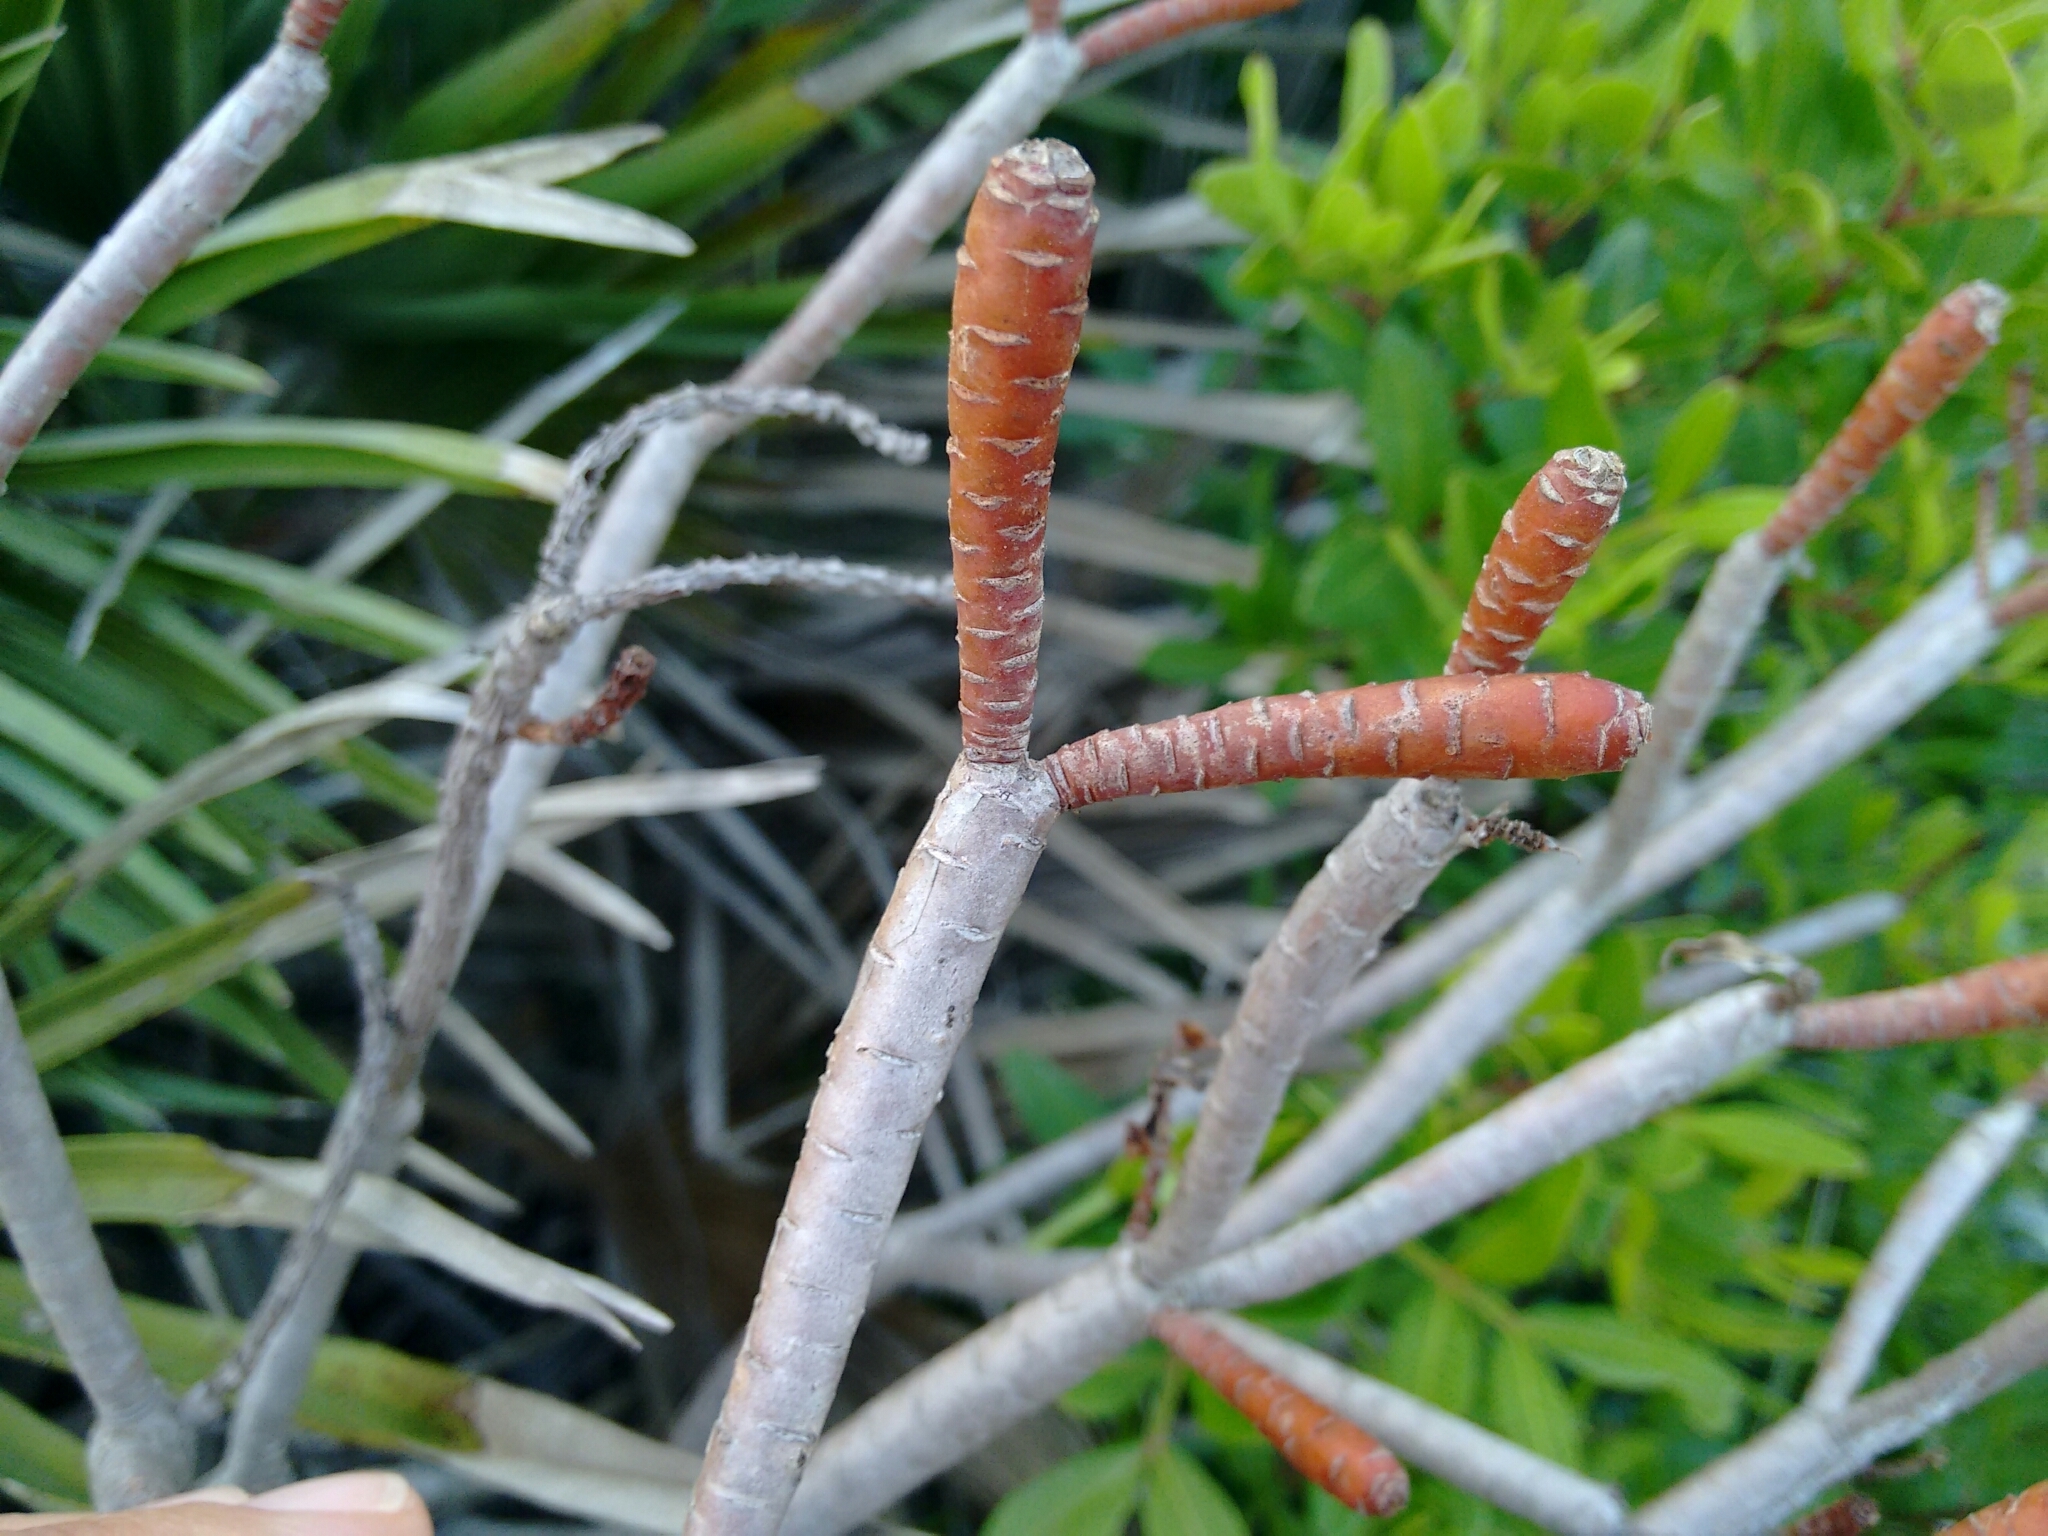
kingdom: Plantae
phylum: Tracheophyta
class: Magnoliopsida
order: Malpighiales
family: Euphorbiaceae
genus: Euphorbia
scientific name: Euphorbia dendroides
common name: Tree spurge
